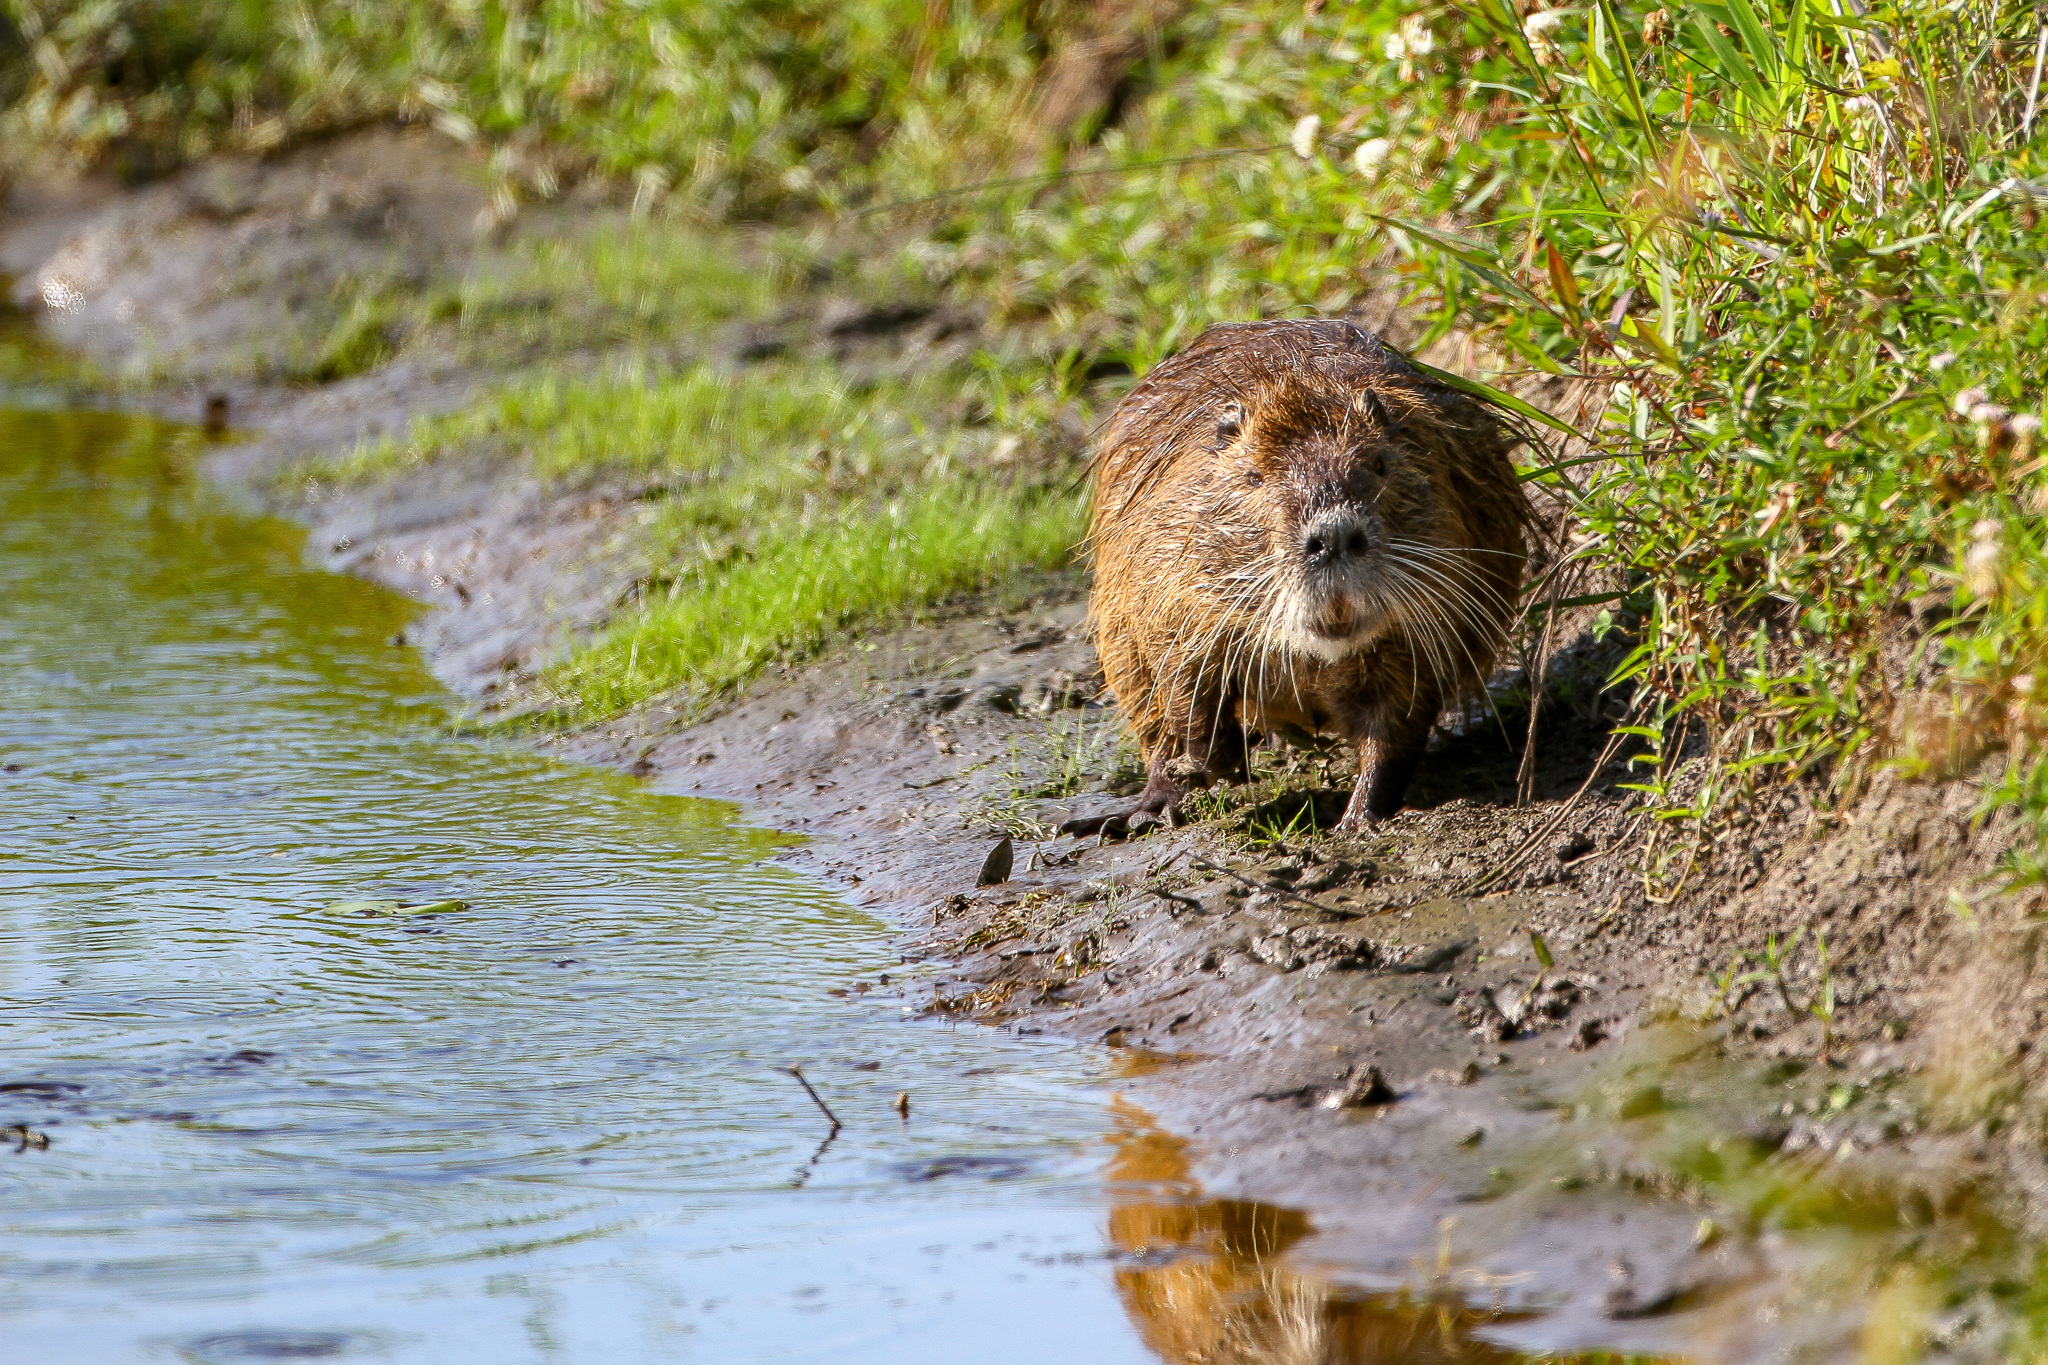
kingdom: Animalia
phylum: Chordata
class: Mammalia
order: Rodentia
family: Myocastoridae
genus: Myocastor
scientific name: Myocastor coypus
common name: Coypu
